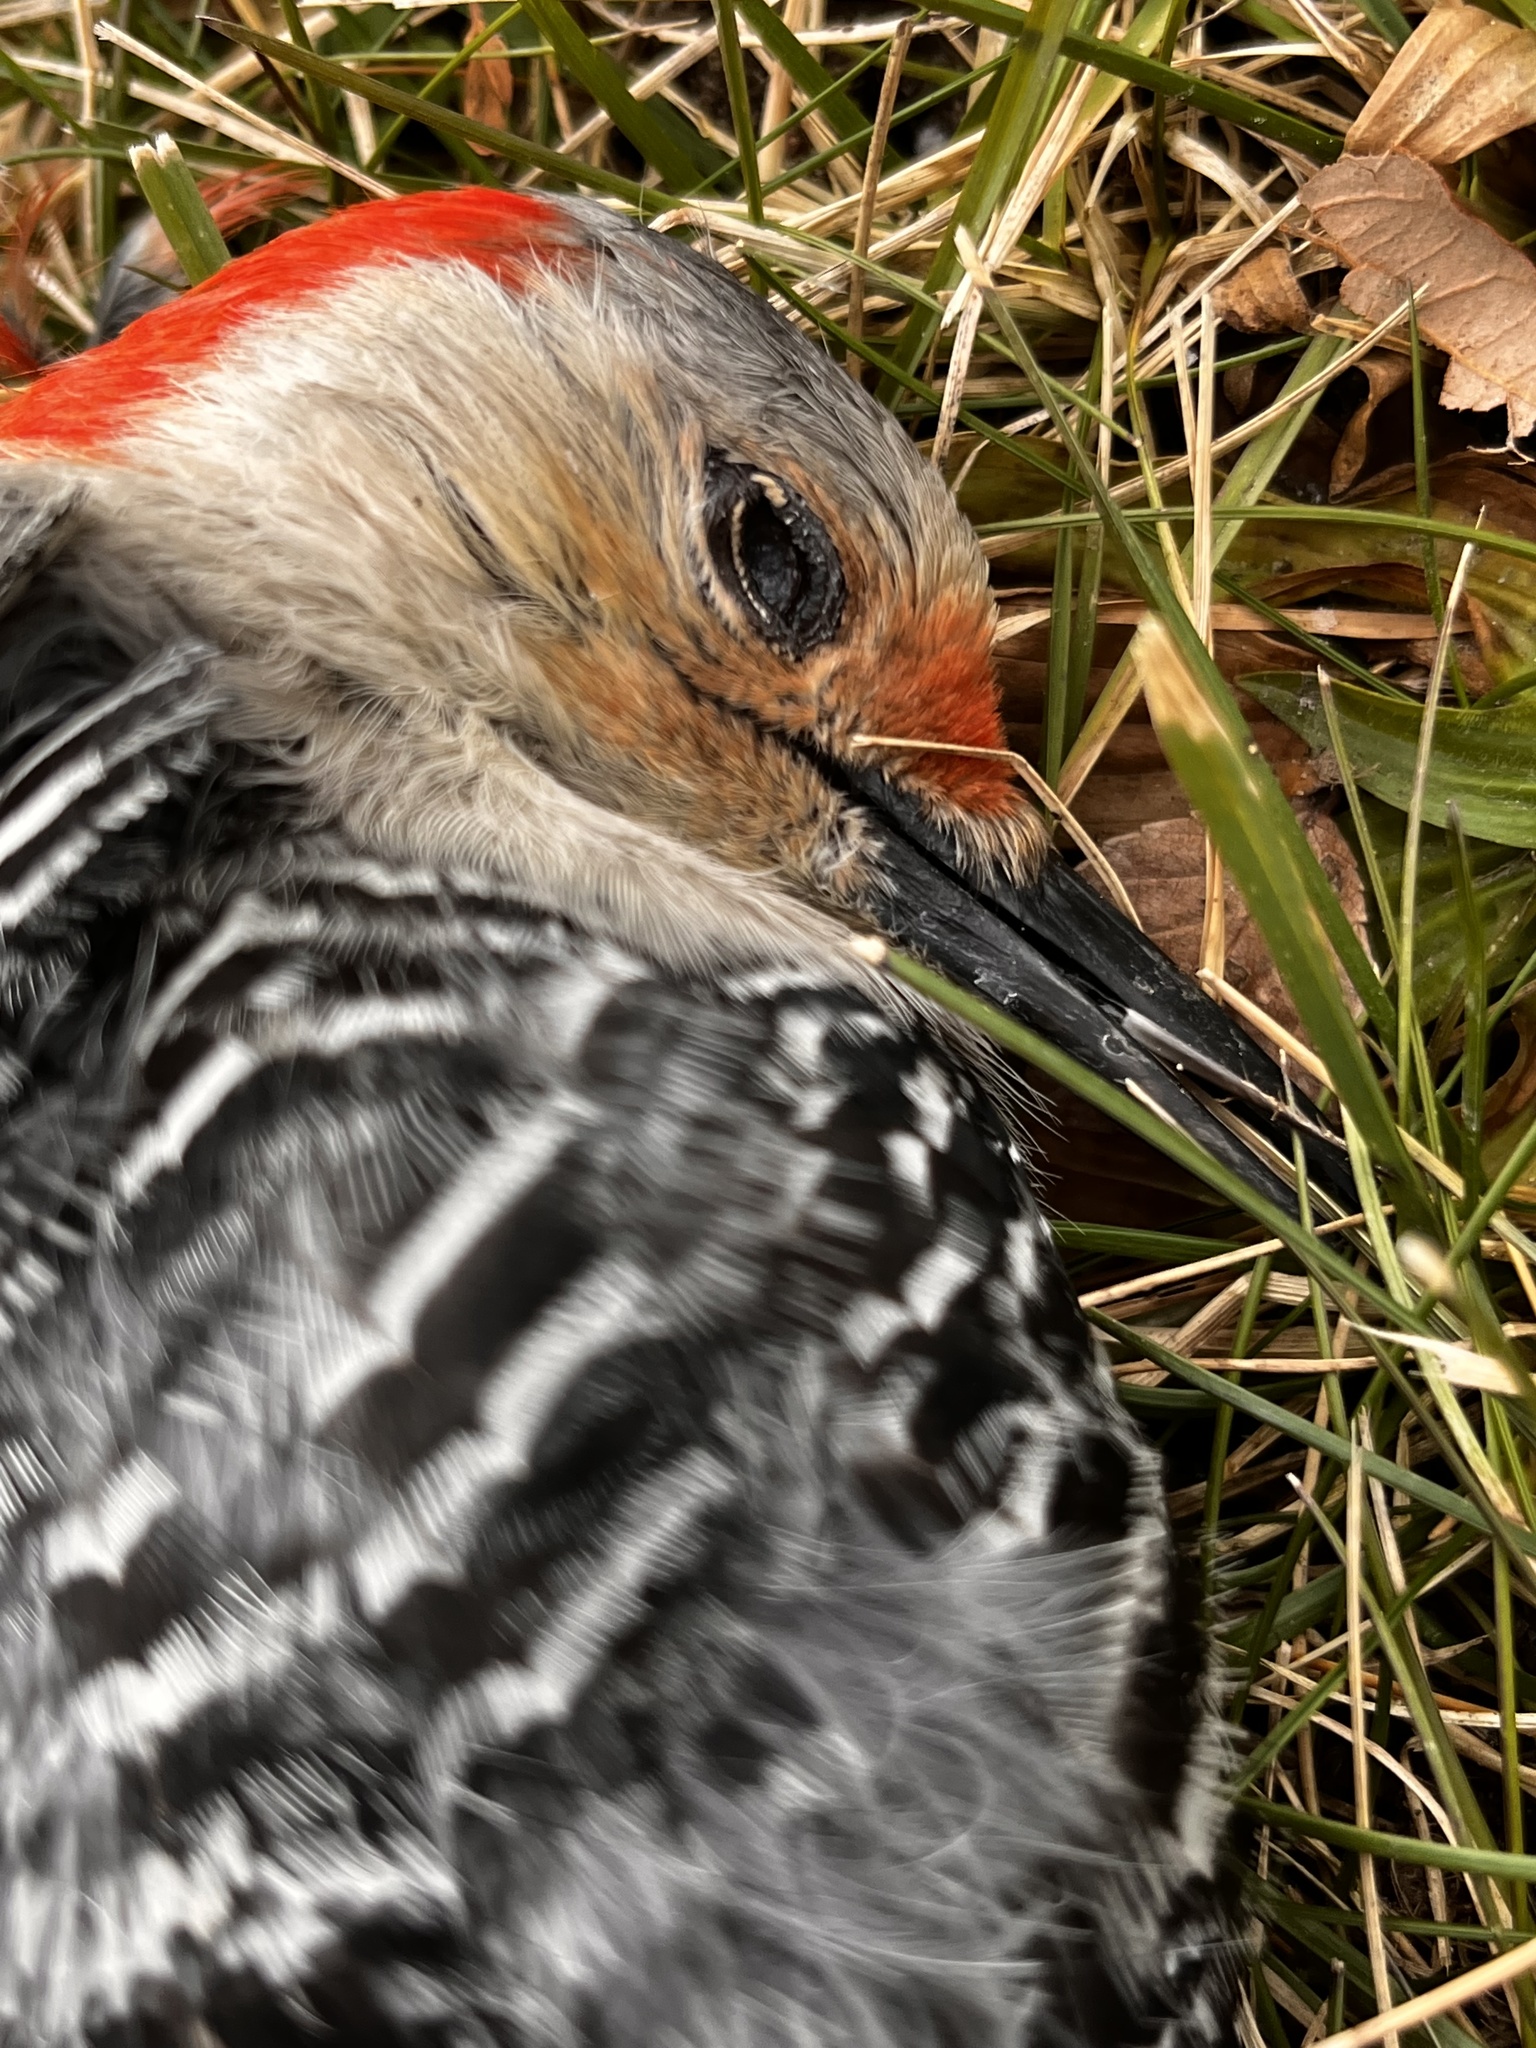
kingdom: Animalia
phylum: Chordata
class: Aves
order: Piciformes
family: Picidae
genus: Melanerpes
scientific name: Melanerpes carolinus
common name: Red-bellied woodpecker
